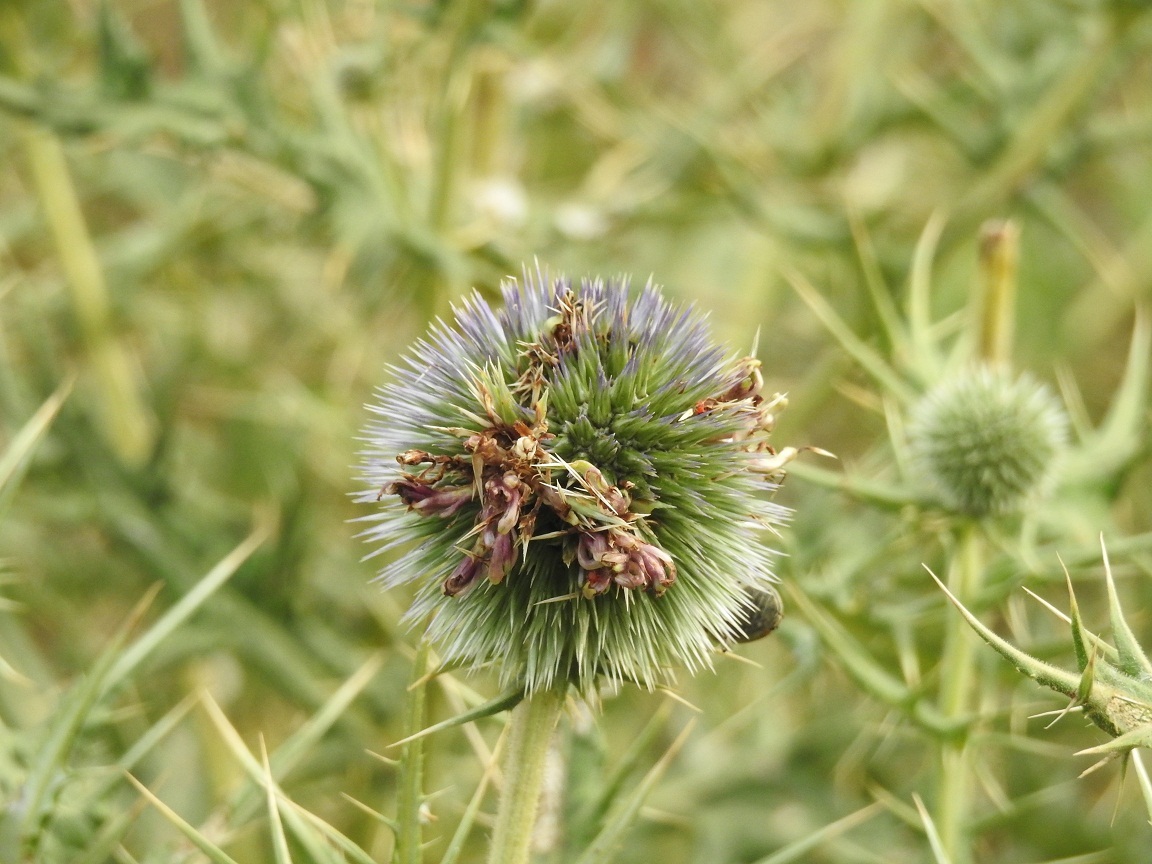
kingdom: Plantae
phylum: Tracheophyta
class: Magnoliopsida
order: Asterales
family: Asteraceae
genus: Echinops
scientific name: Echinops bovei
